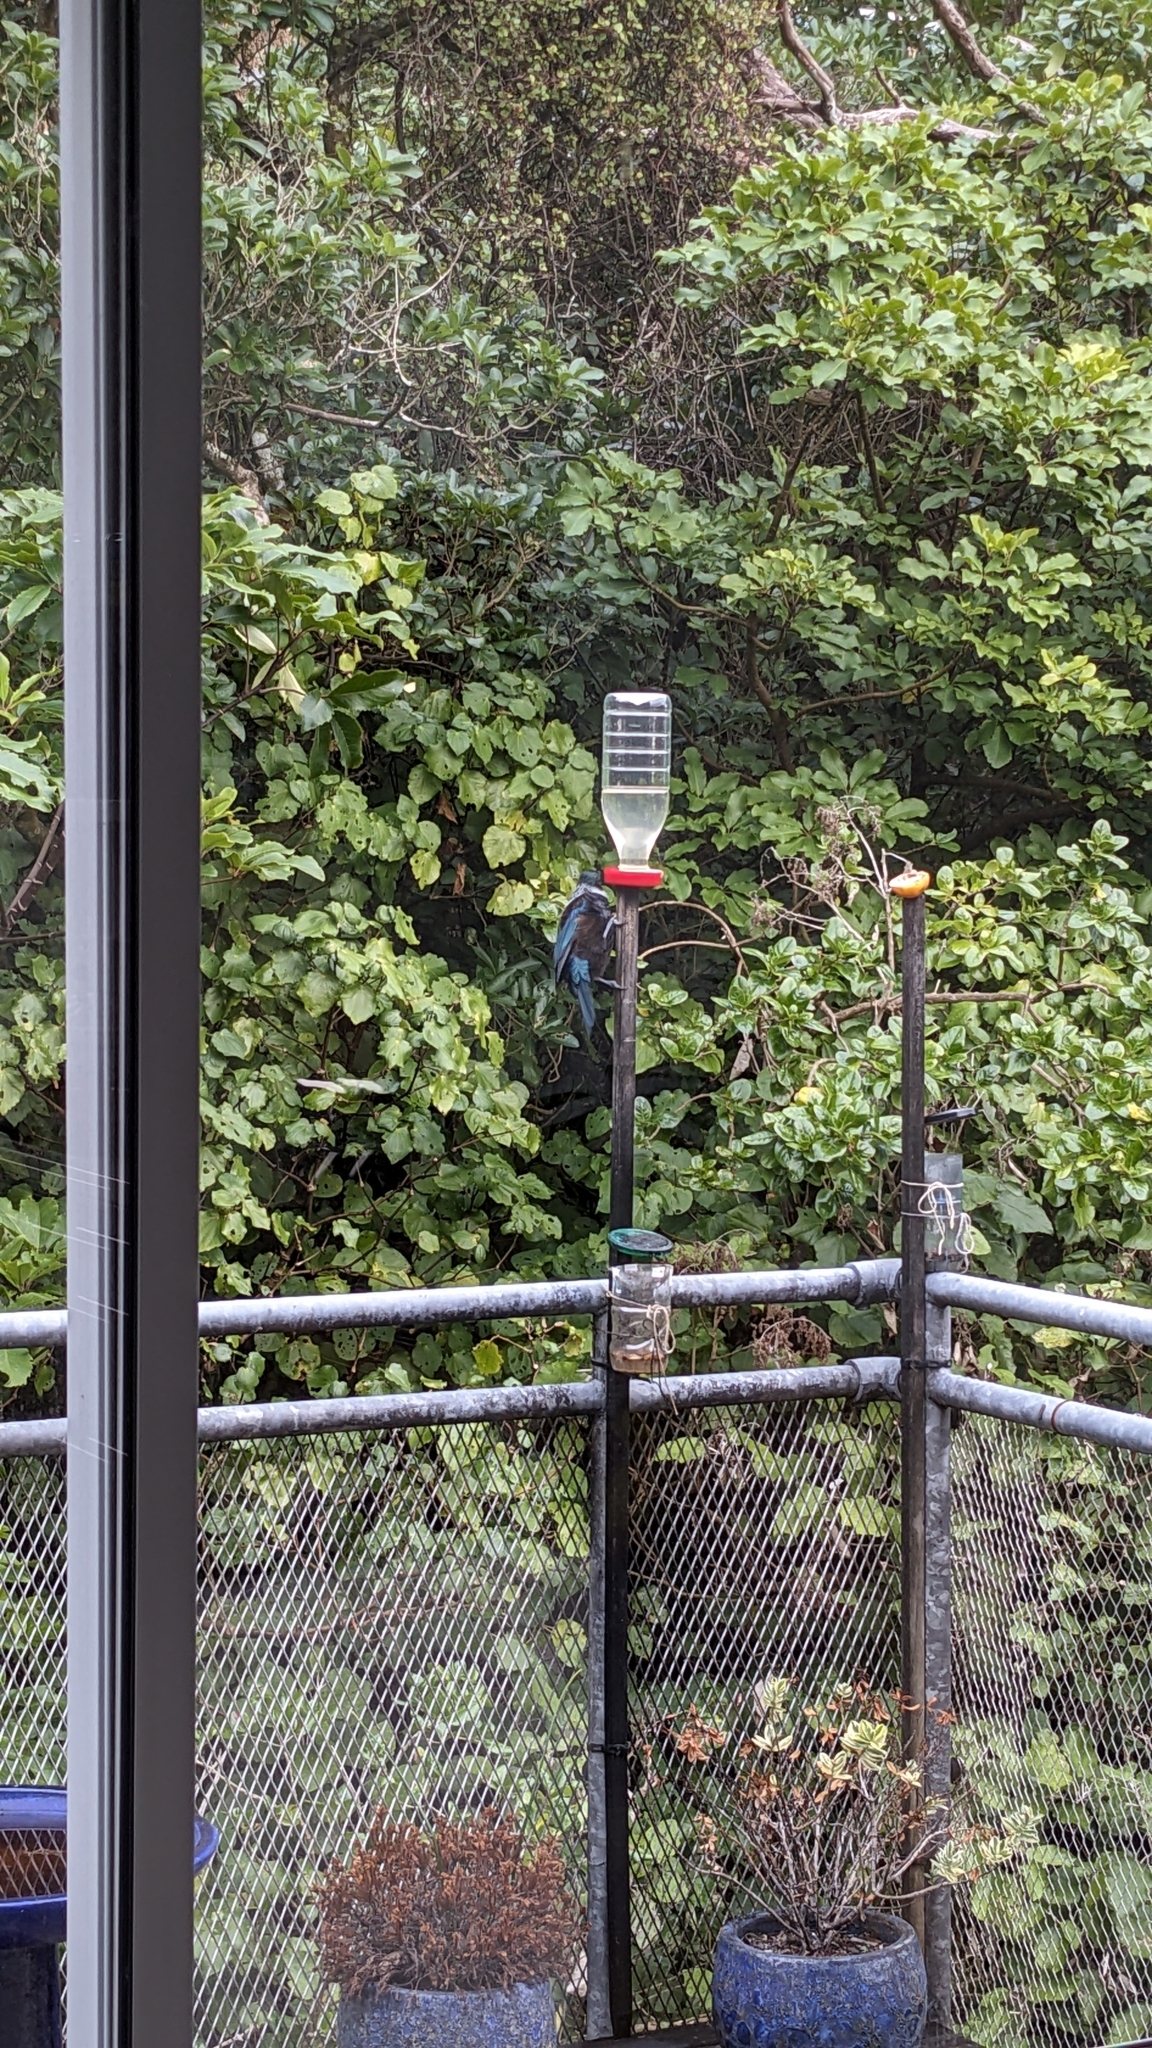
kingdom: Animalia
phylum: Chordata
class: Aves
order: Passeriformes
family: Meliphagidae
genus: Prosthemadera
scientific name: Prosthemadera novaeseelandiae
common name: Tui
